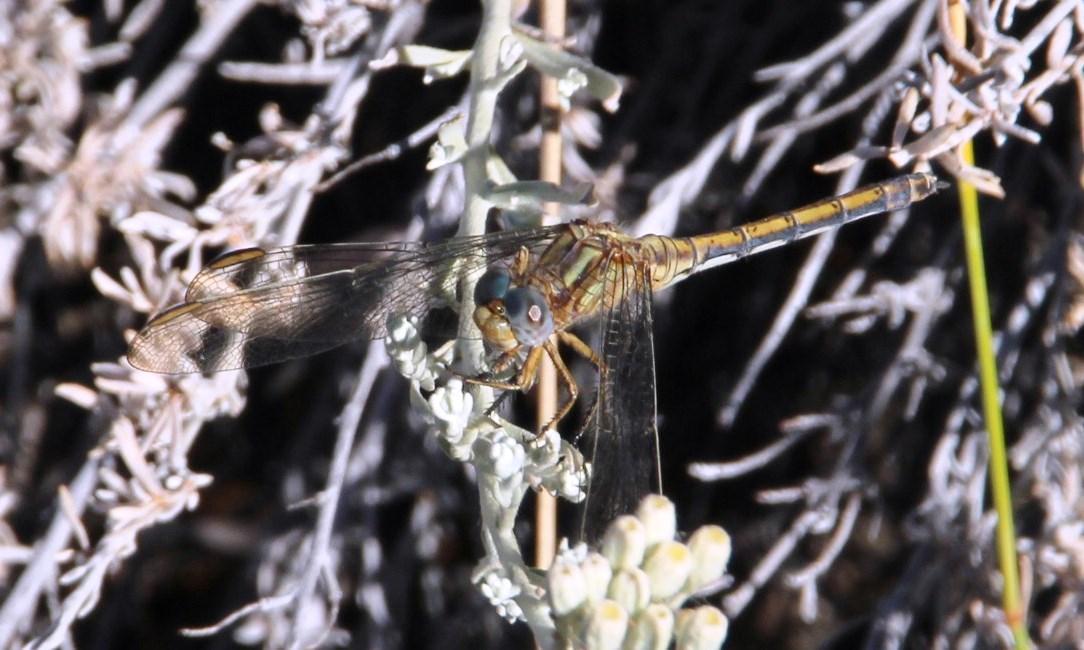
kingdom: Animalia
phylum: Arthropoda
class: Insecta
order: Odonata
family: Libellulidae
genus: Orthetrum
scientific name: Orthetrum machadoi
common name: Highland skimmer
